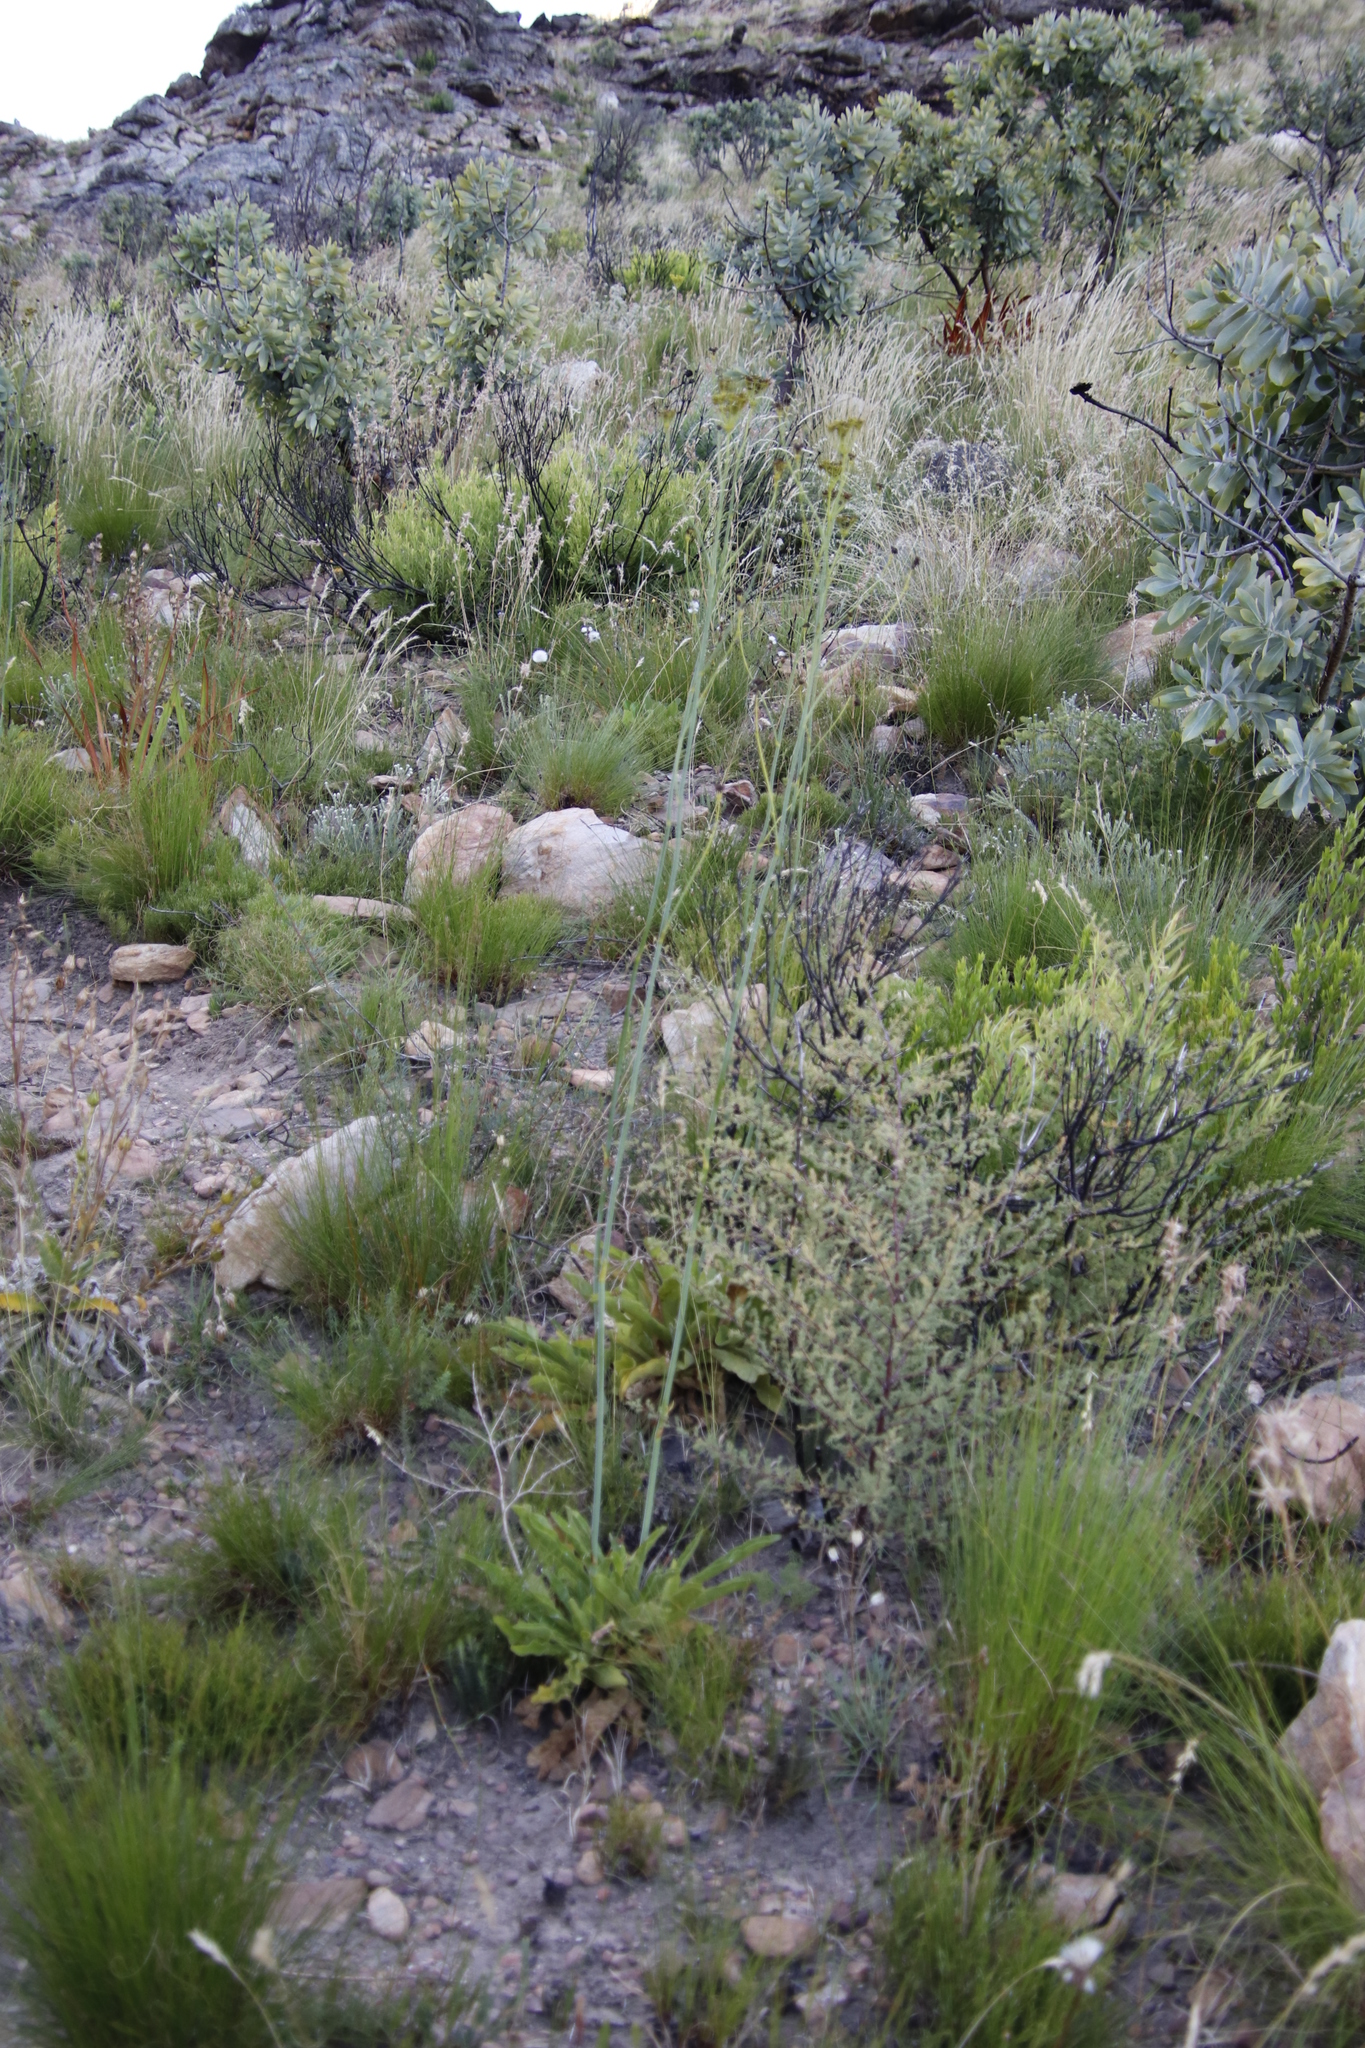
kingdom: Plantae
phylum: Tracheophyta
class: Magnoliopsida
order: Apiales
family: Apiaceae
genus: Lichtensteinia
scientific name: Lichtensteinia trifida
